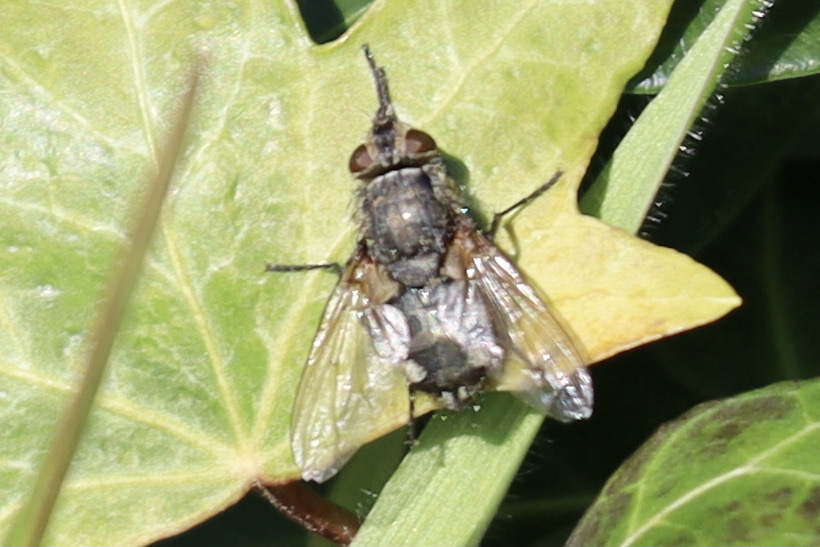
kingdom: Animalia
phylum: Arthropoda
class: Insecta
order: Diptera
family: Polleniidae
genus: Pollenia
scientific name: Pollenia
